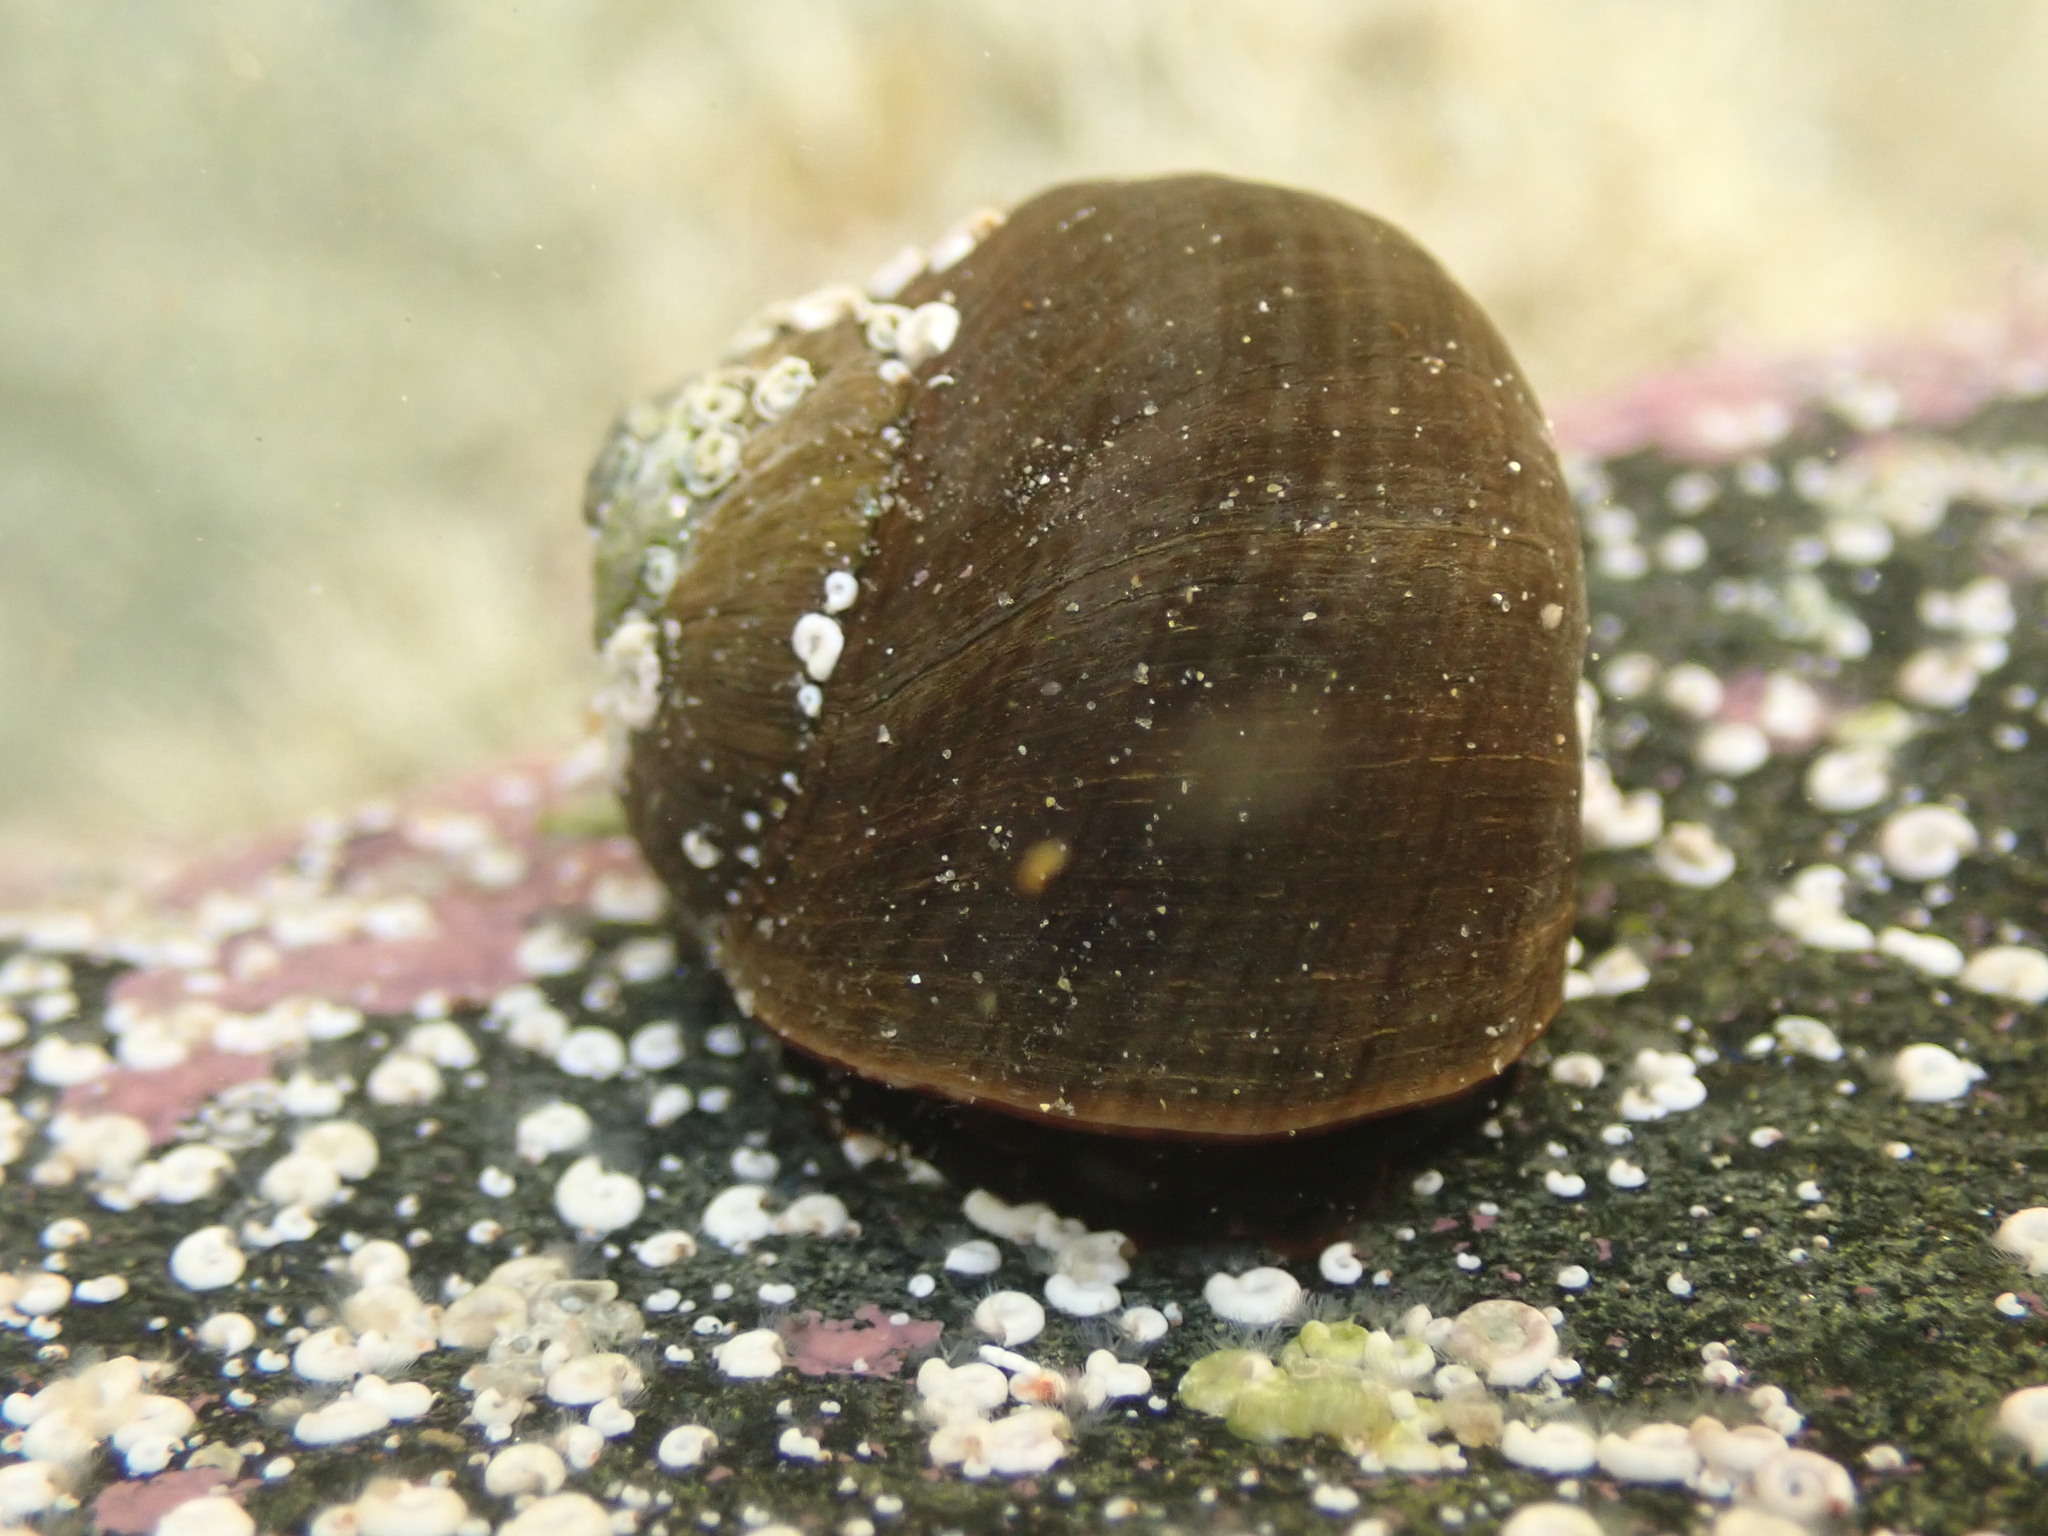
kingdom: Animalia
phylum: Mollusca
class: Gastropoda
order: Trochida
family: Turbinidae
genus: Lunella
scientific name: Lunella smaragda
